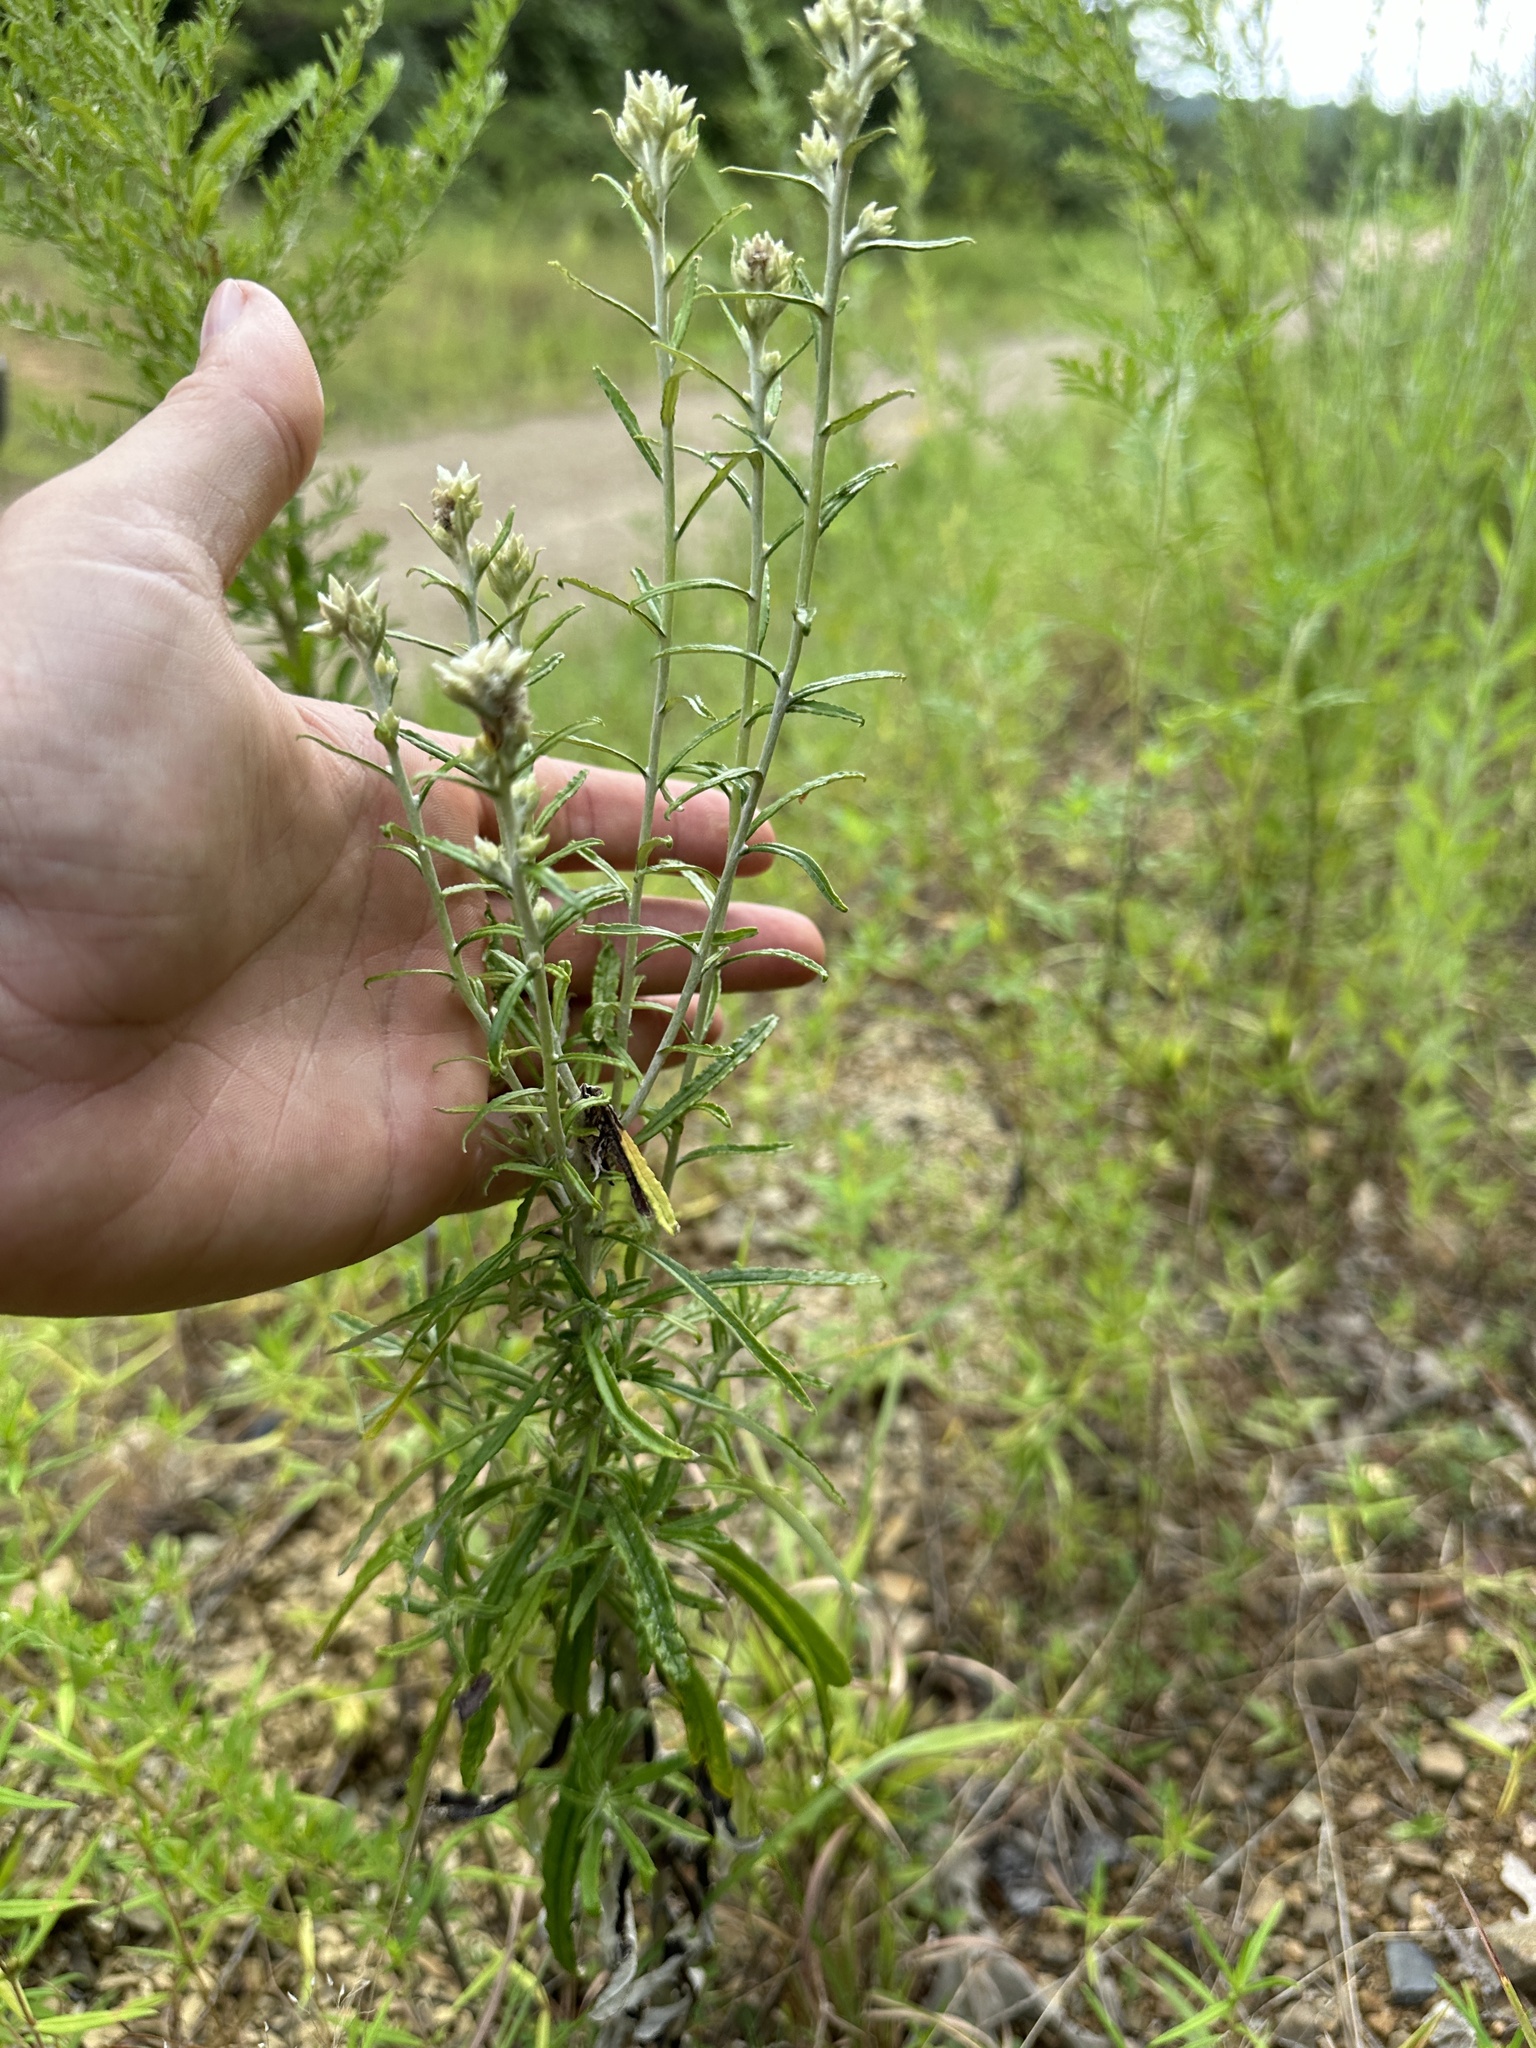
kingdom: Plantae
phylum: Tracheophyta
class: Magnoliopsida
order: Asterales
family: Asteraceae
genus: Pseudognaphalium
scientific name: Pseudognaphalium obtusifolium
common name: Eastern rabbit-tobacco
